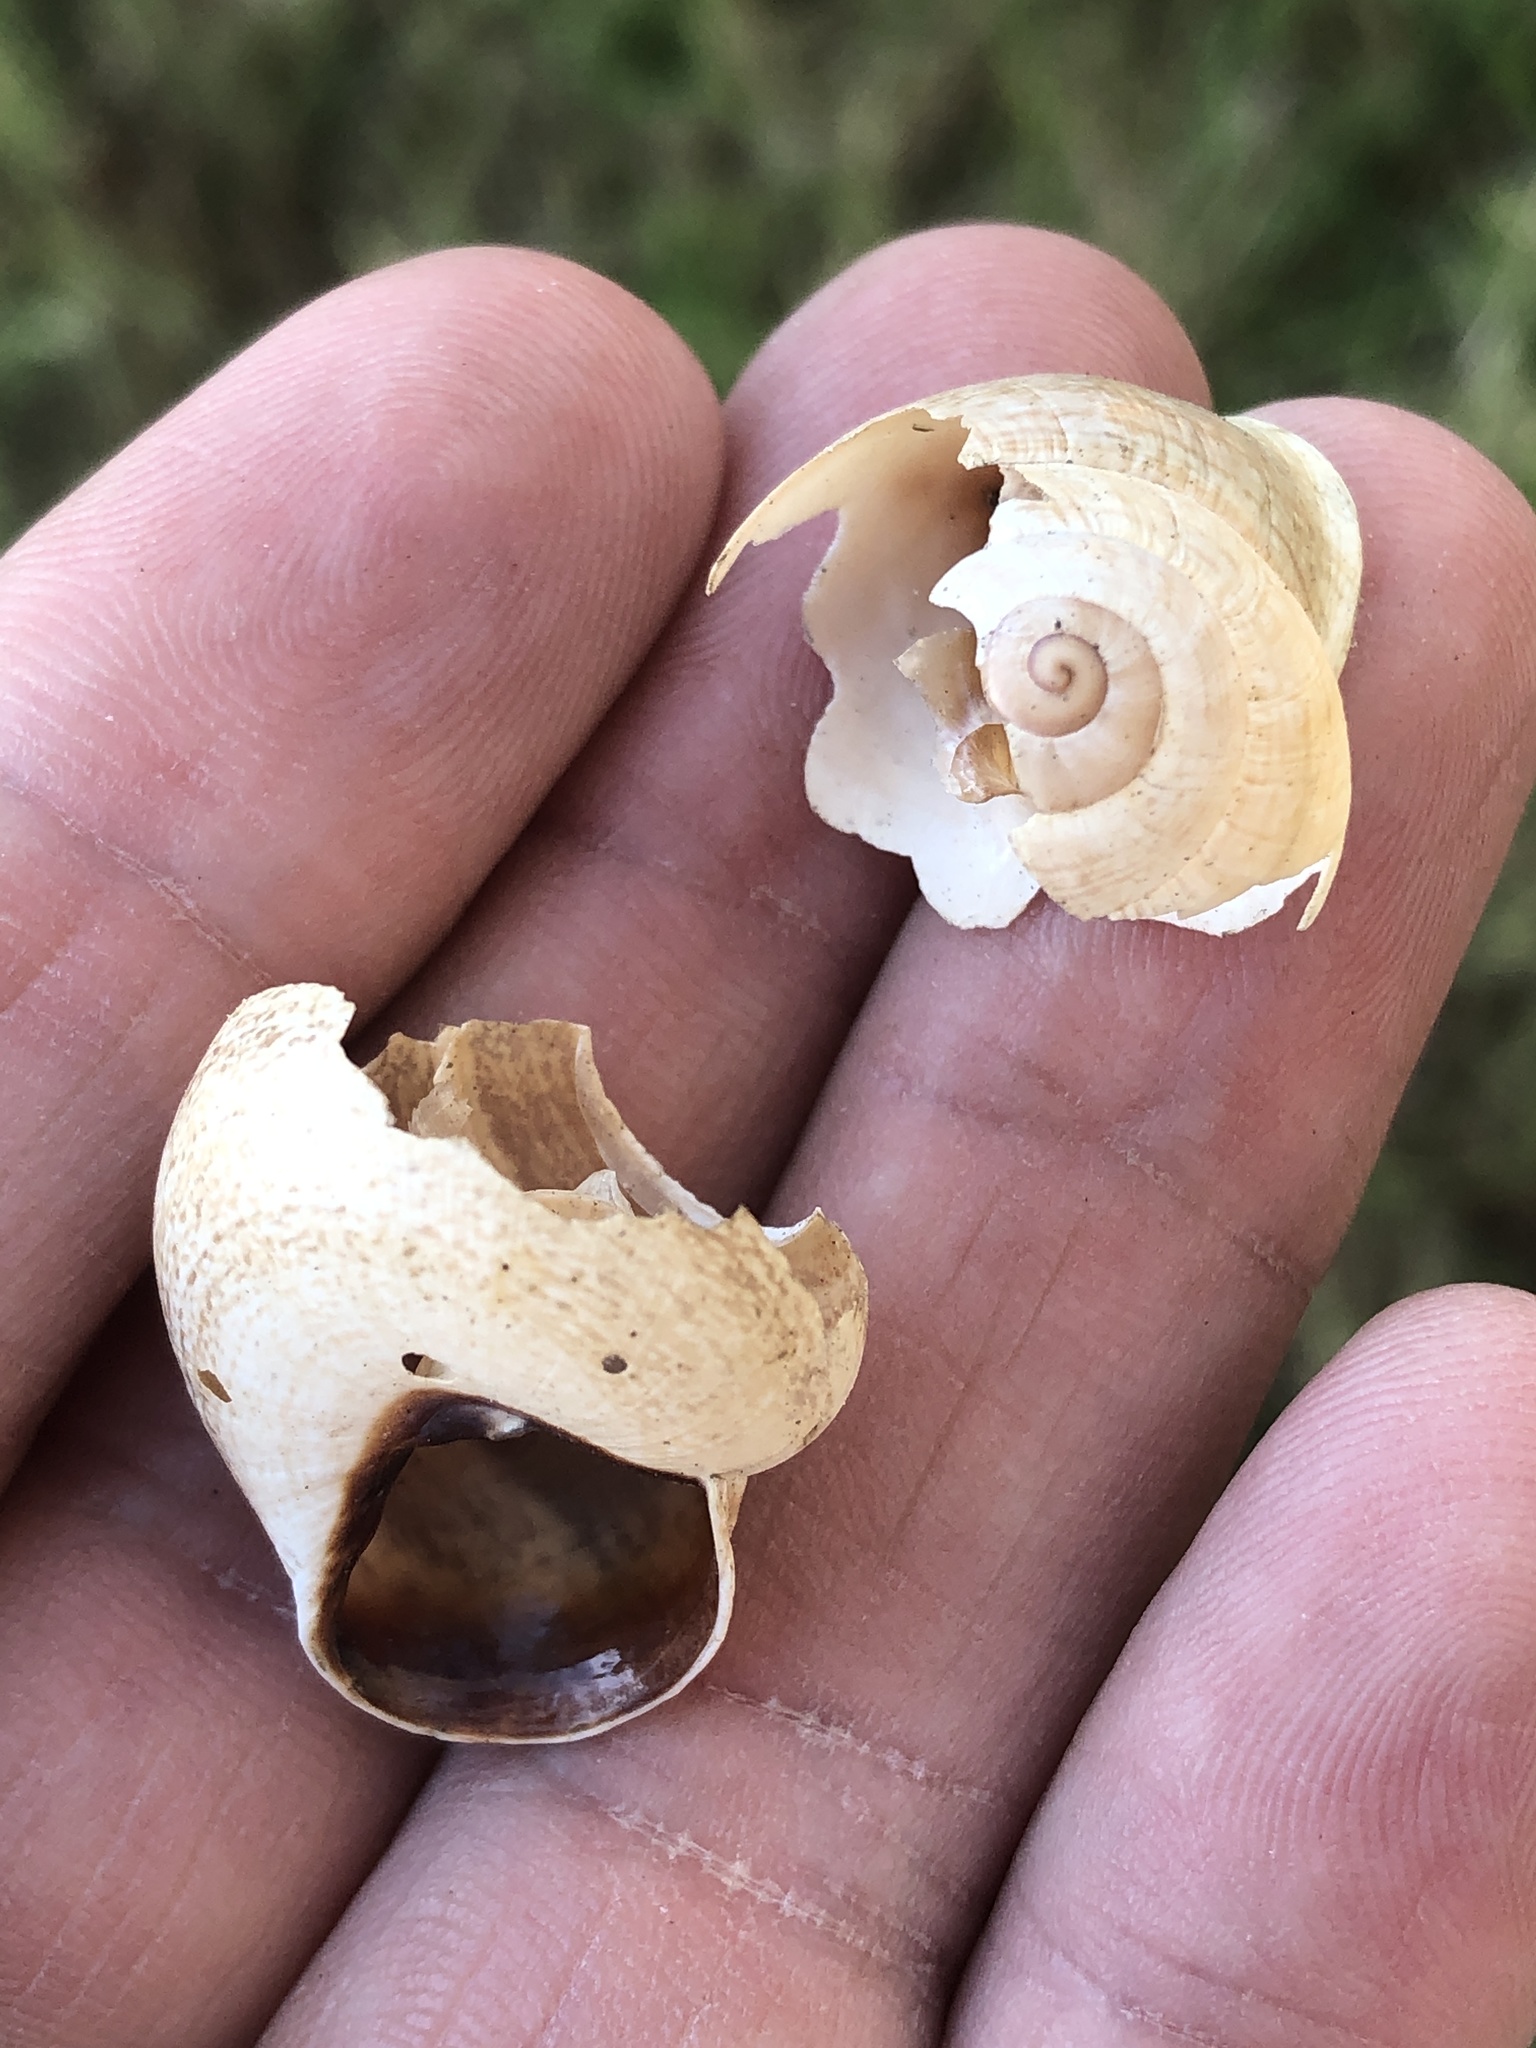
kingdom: Animalia
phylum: Mollusca
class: Gastropoda
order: Stylommatophora
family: Helicidae
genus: Otala
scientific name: Otala lactea
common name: Milk snail
